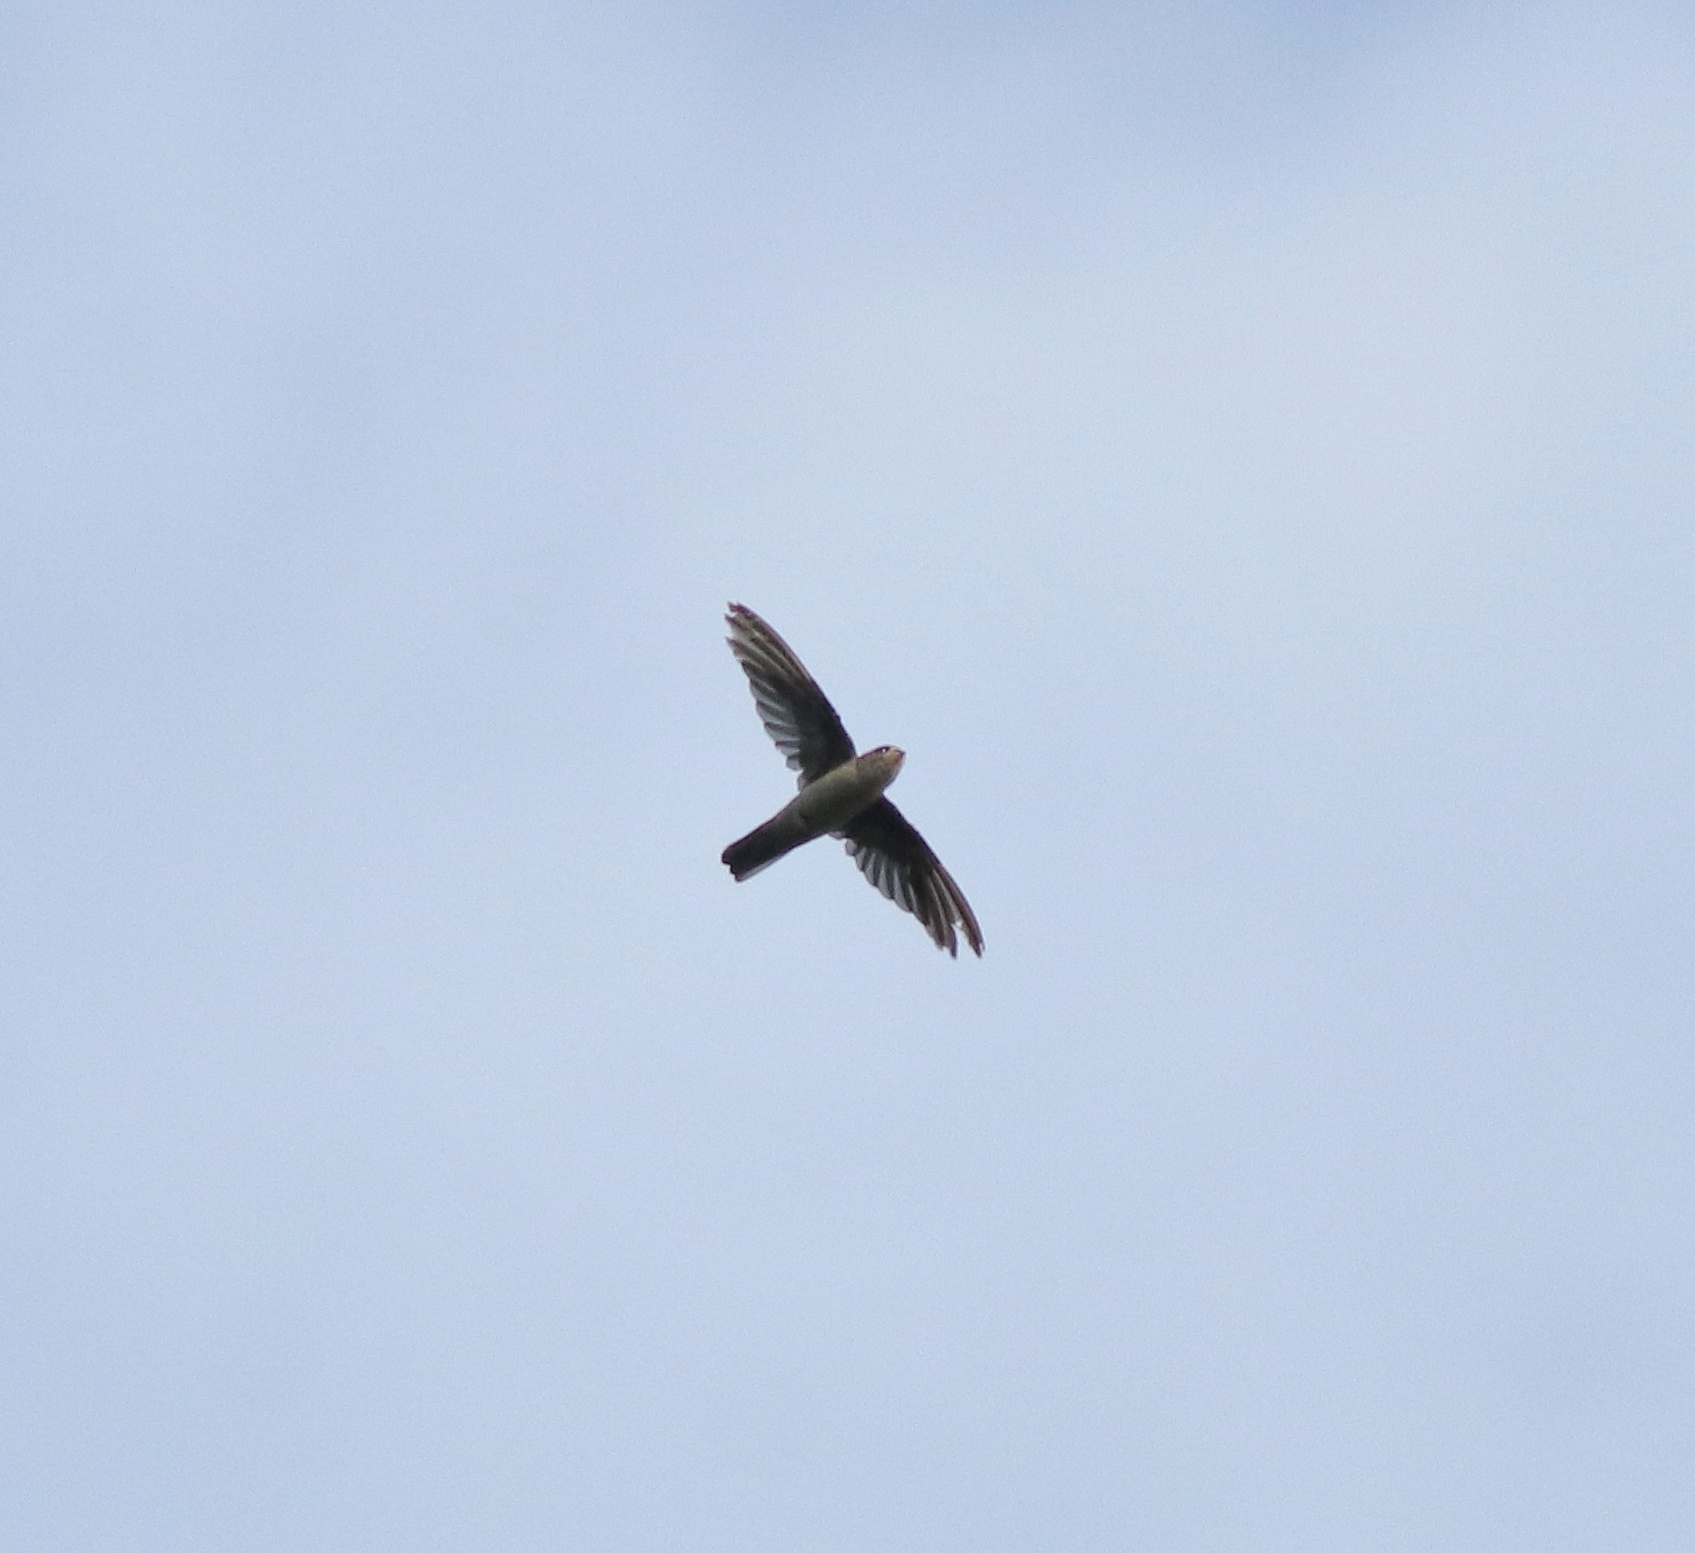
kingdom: Animalia
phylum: Chordata
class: Aves
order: Apodiformes
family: Apodidae
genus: Aerodramus
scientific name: Aerodramus unicolor
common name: Indian swiftlet
